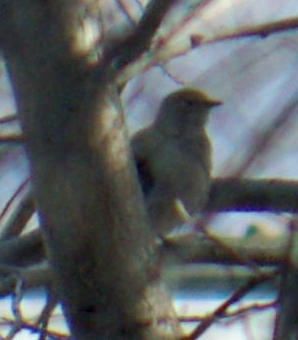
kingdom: Animalia
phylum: Chordata
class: Aves
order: Passeriformes
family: Turdidae
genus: Myadestes
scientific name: Myadestes townsendi
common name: Townsend's solitaire
